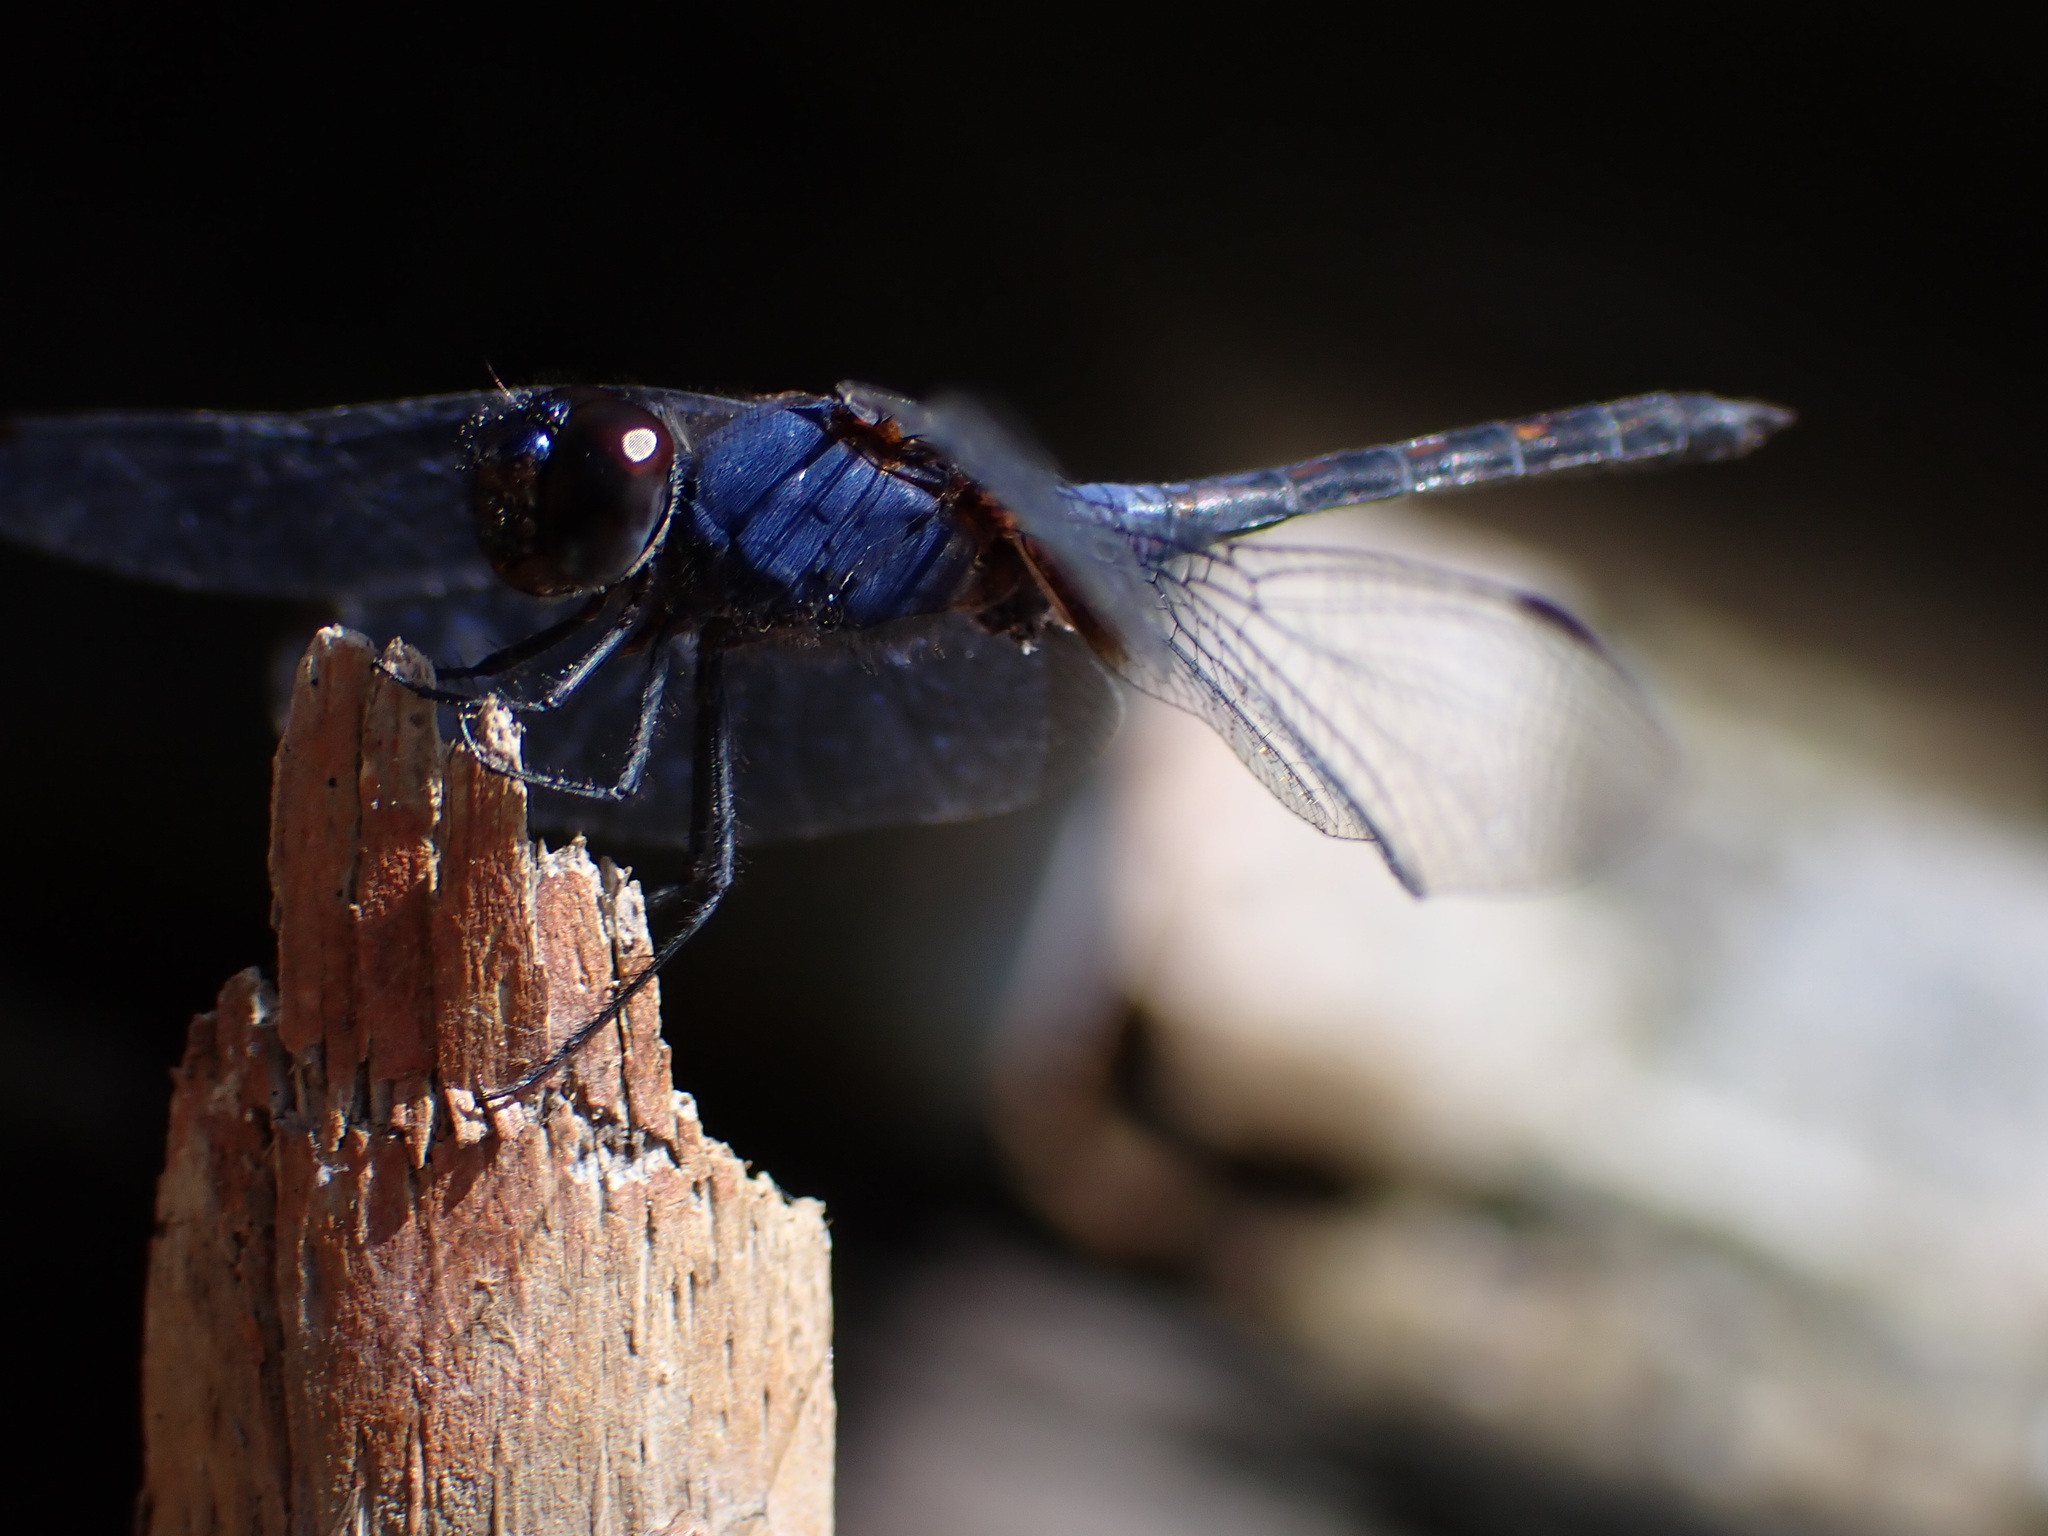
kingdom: Animalia
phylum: Arthropoda
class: Insecta
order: Odonata
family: Libellulidae
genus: Trithemis
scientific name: Trithemis festiva
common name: Indigo dropwing
